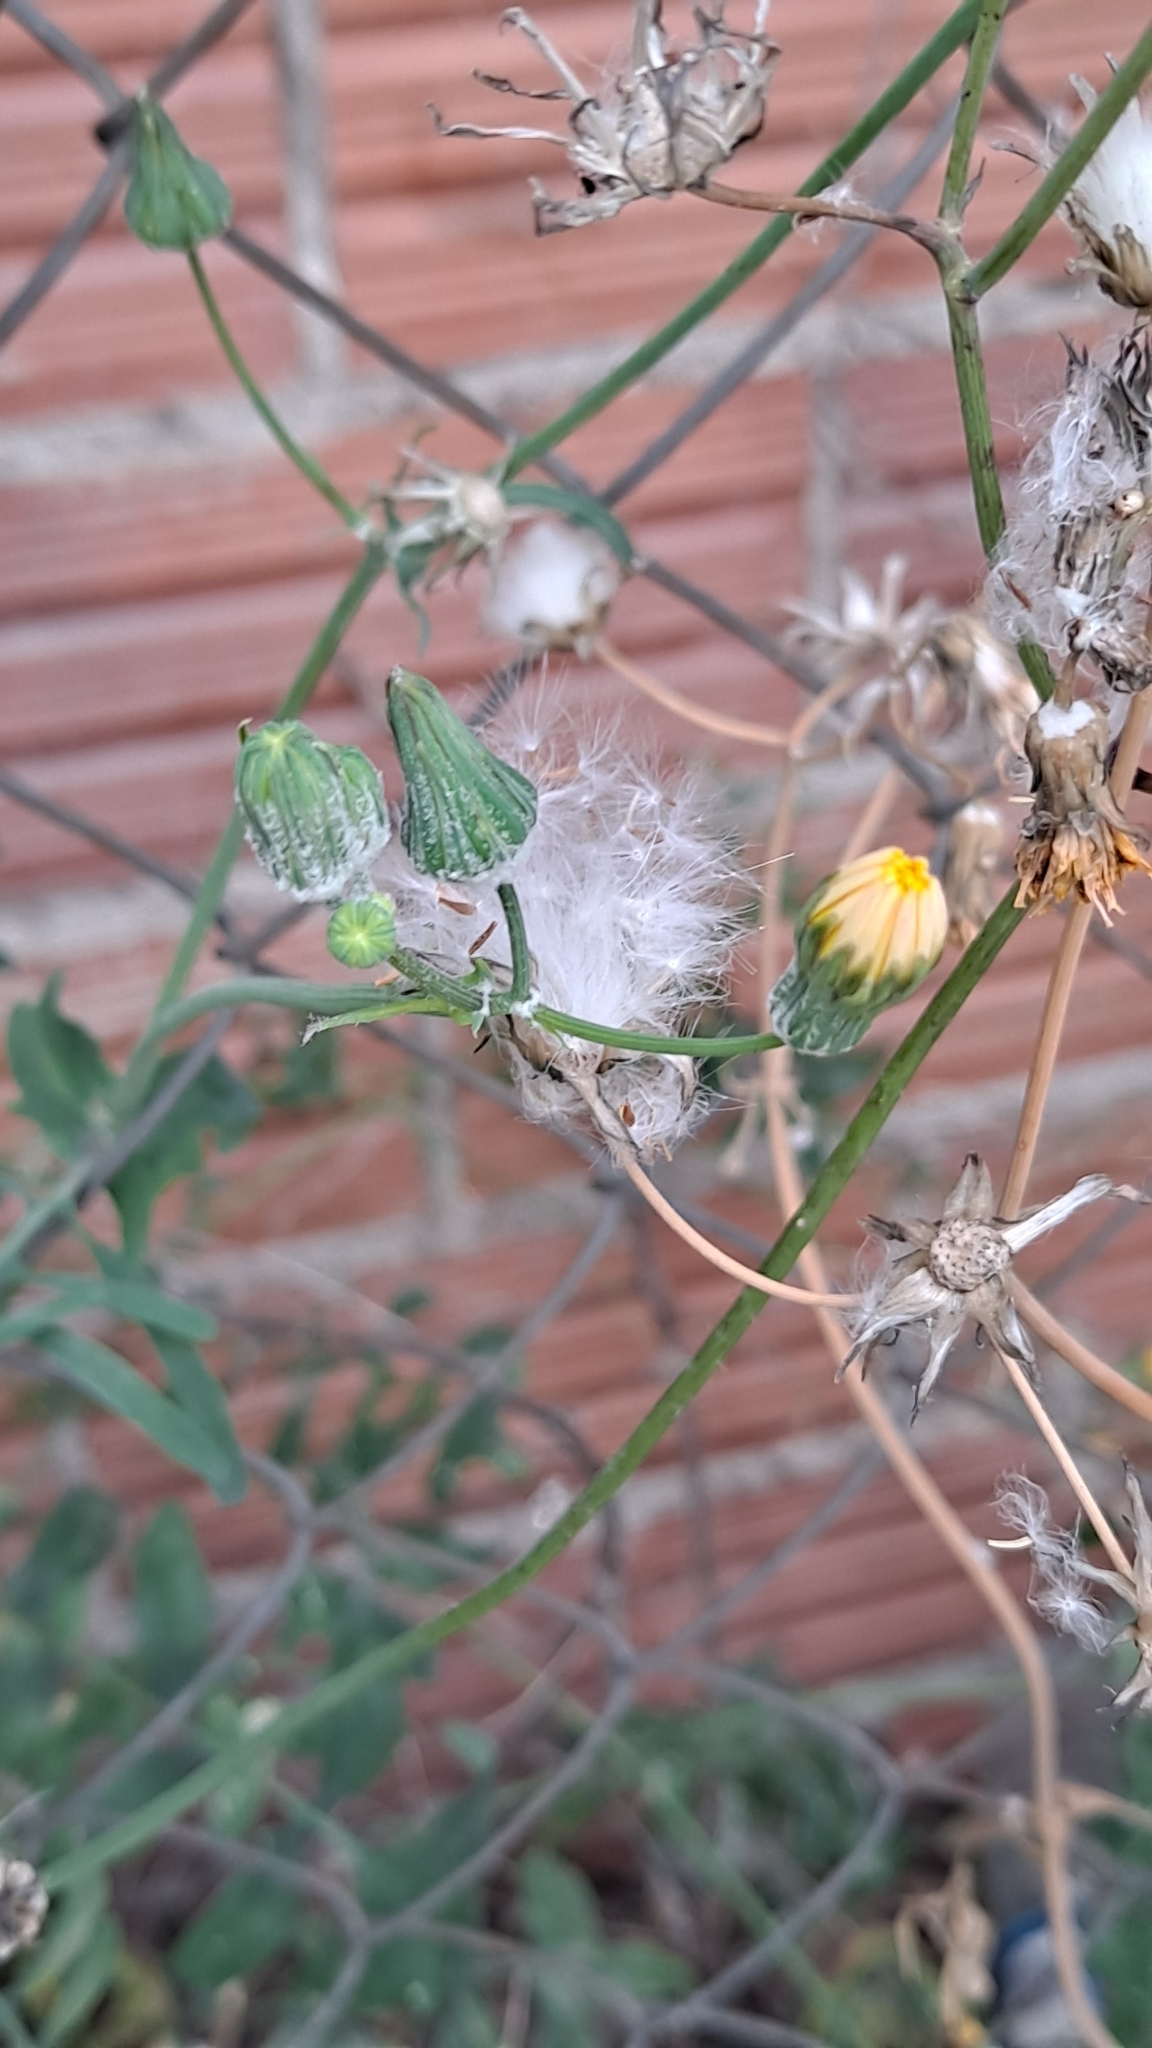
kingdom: Plantae
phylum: Tracheophyta
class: Magnoliopsida
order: Asterales
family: Asteraceae
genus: Sonchus
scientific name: Sonchus tenerrimus
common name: Clammy sowthistle
